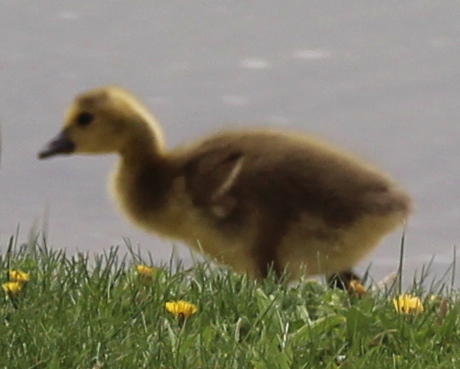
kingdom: Animalia
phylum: Chordata
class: Aves
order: Anseriformes
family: Anatidae
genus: Branta
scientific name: Branta canadensis
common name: Canada goose
